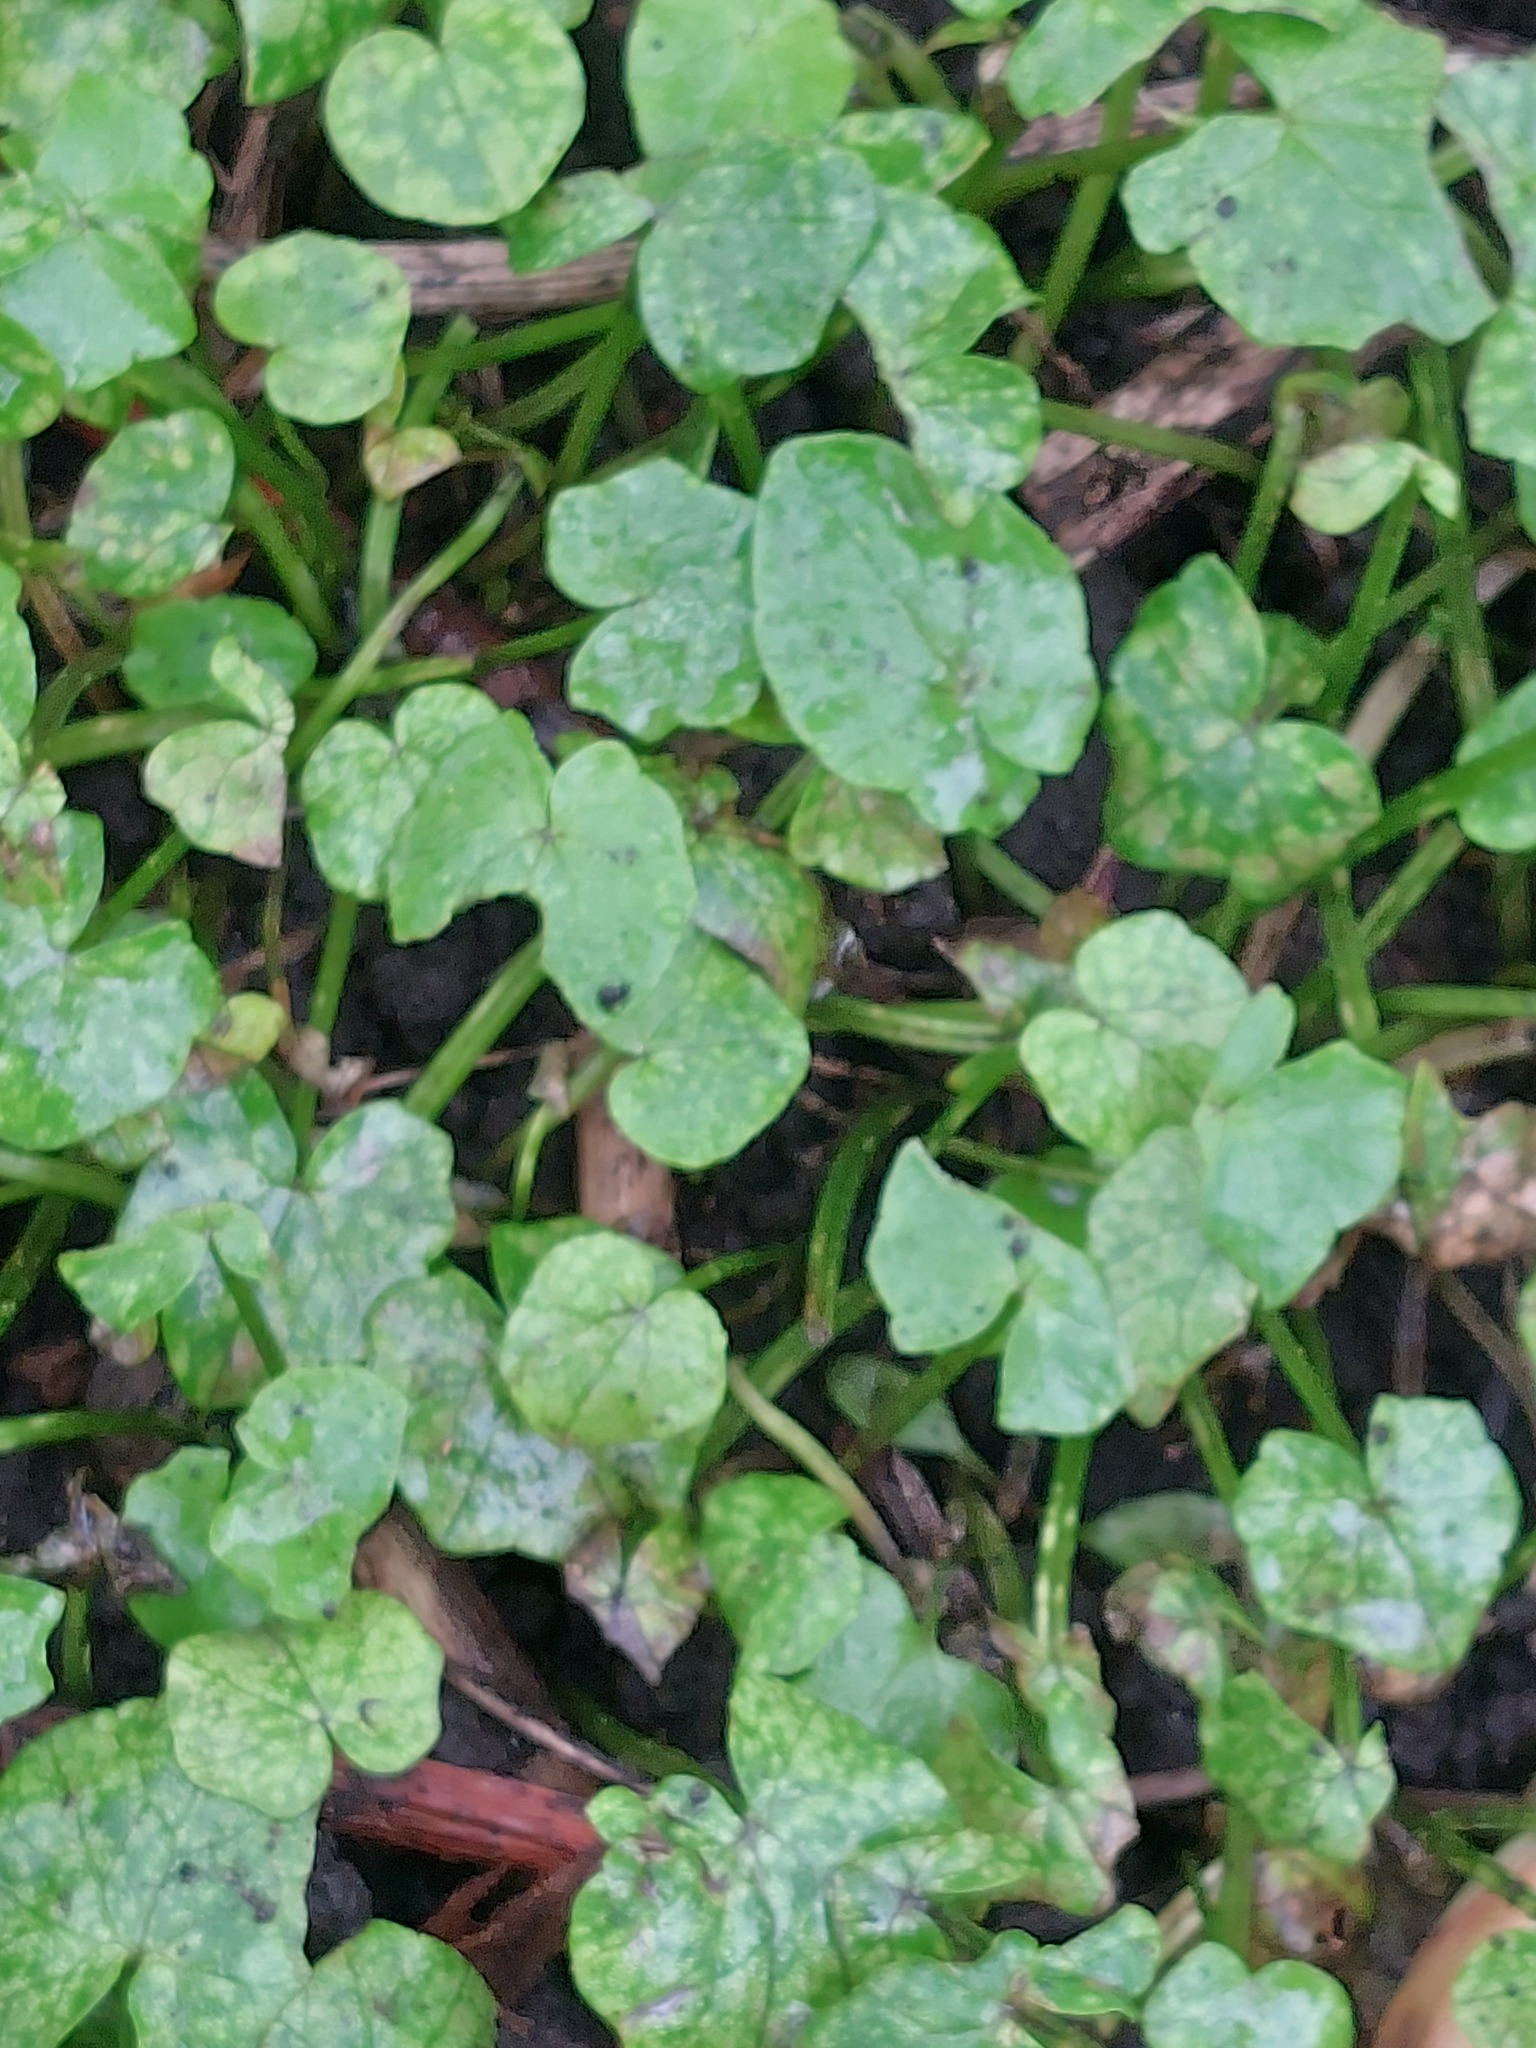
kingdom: Plantae
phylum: Tracheophyta
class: Magnoliopsida
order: Ranunculales
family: Ranunculaceae
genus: Ficaria
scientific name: Ficaria verna
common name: Lesser celandine
